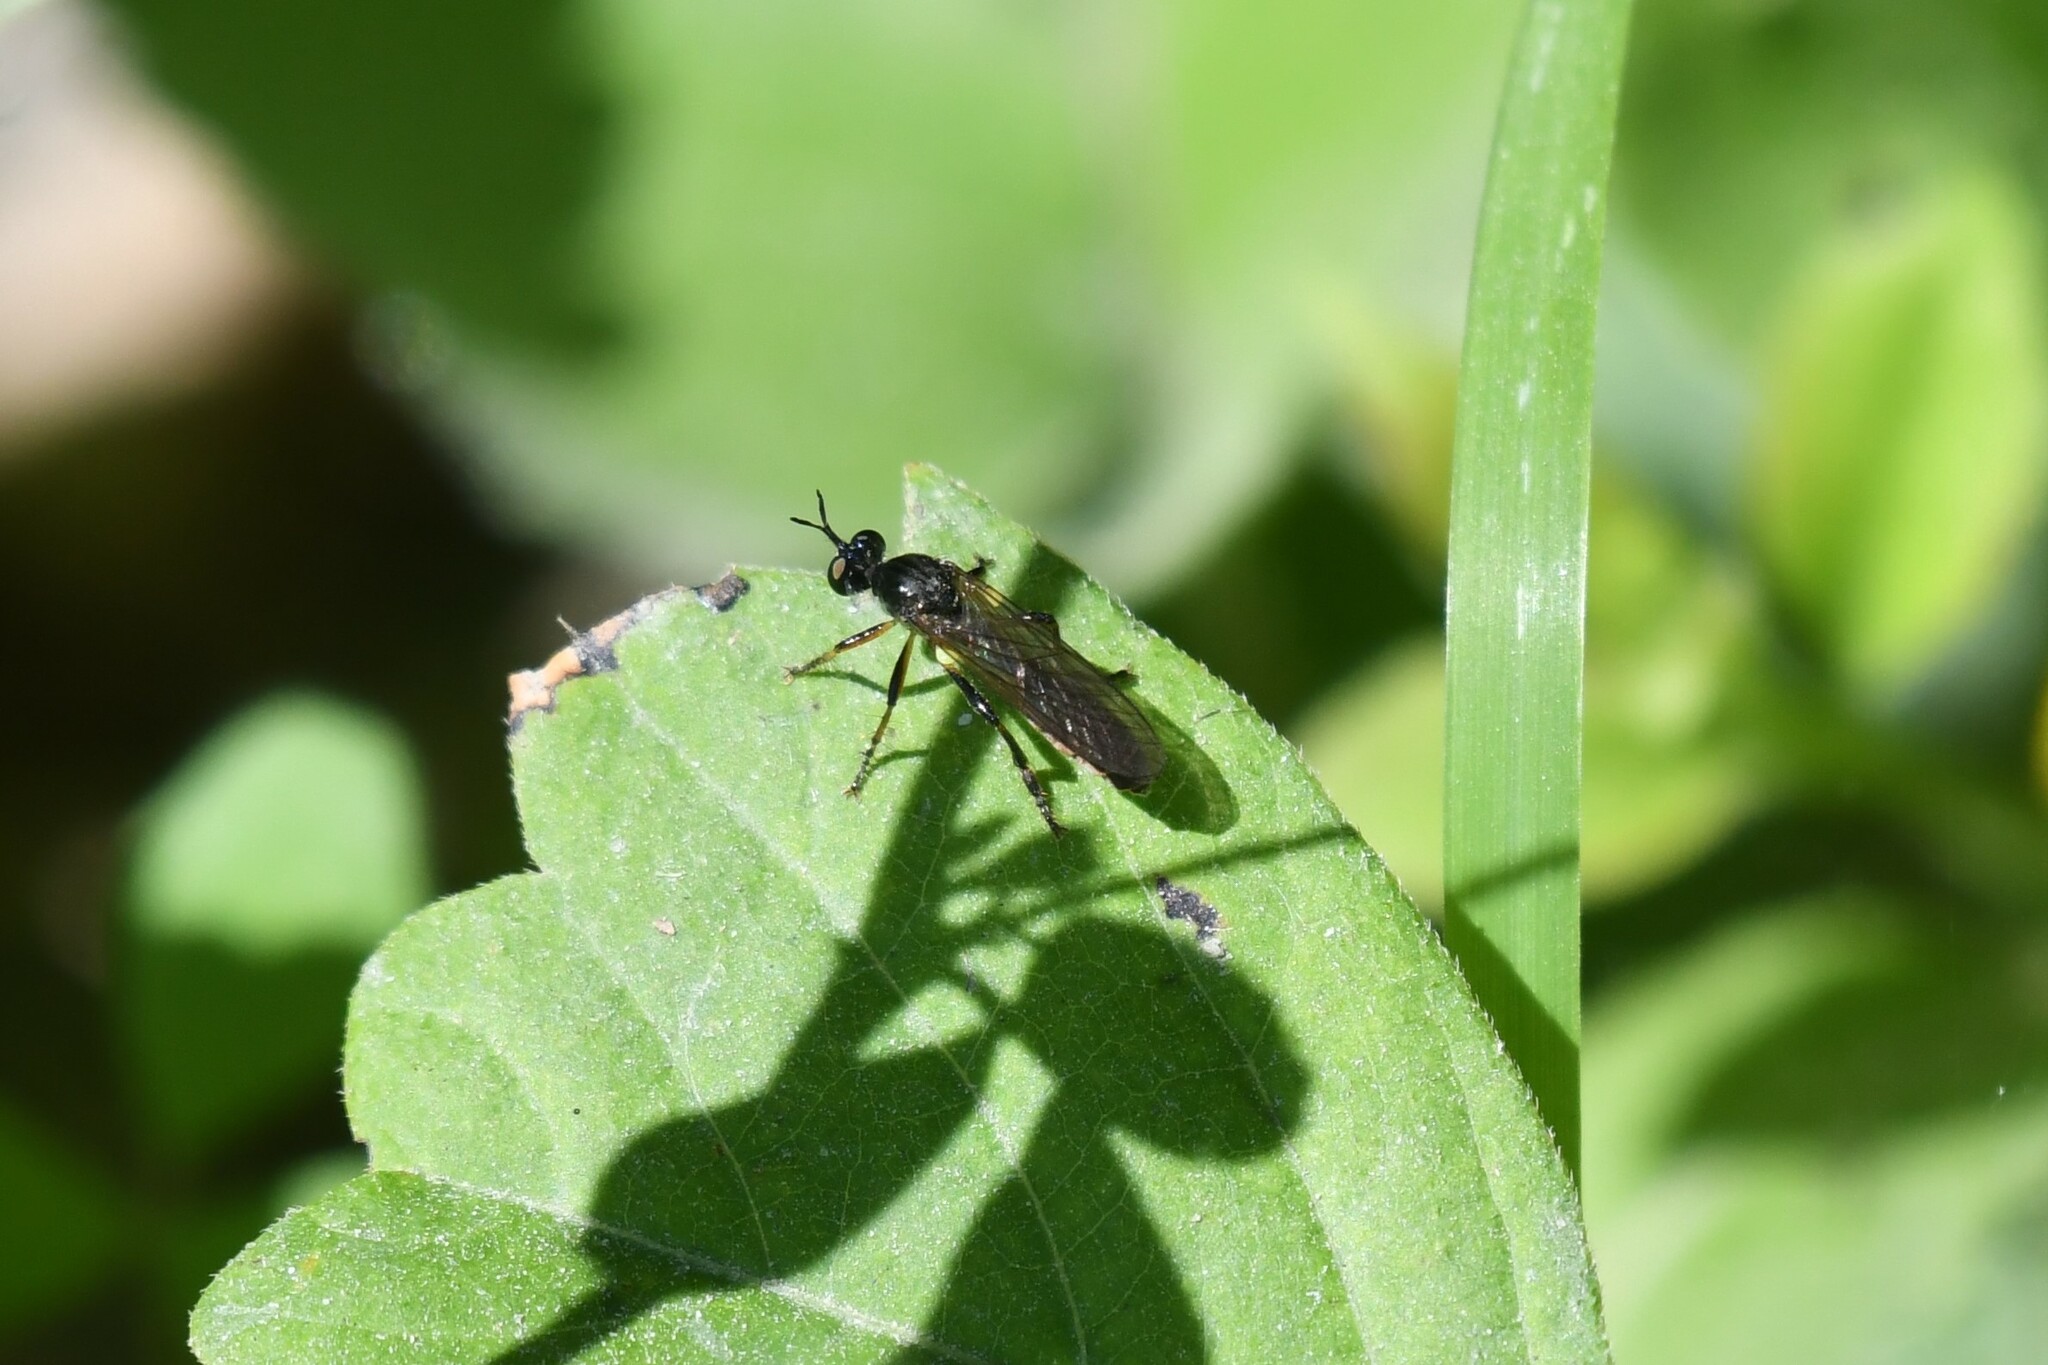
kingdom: Animalia
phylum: Arthropoda
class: Insecta
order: Diptera
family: Asilidae
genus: Dioctria
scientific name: Dioctria hyalipennis
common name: Stripe-legged robberfly
